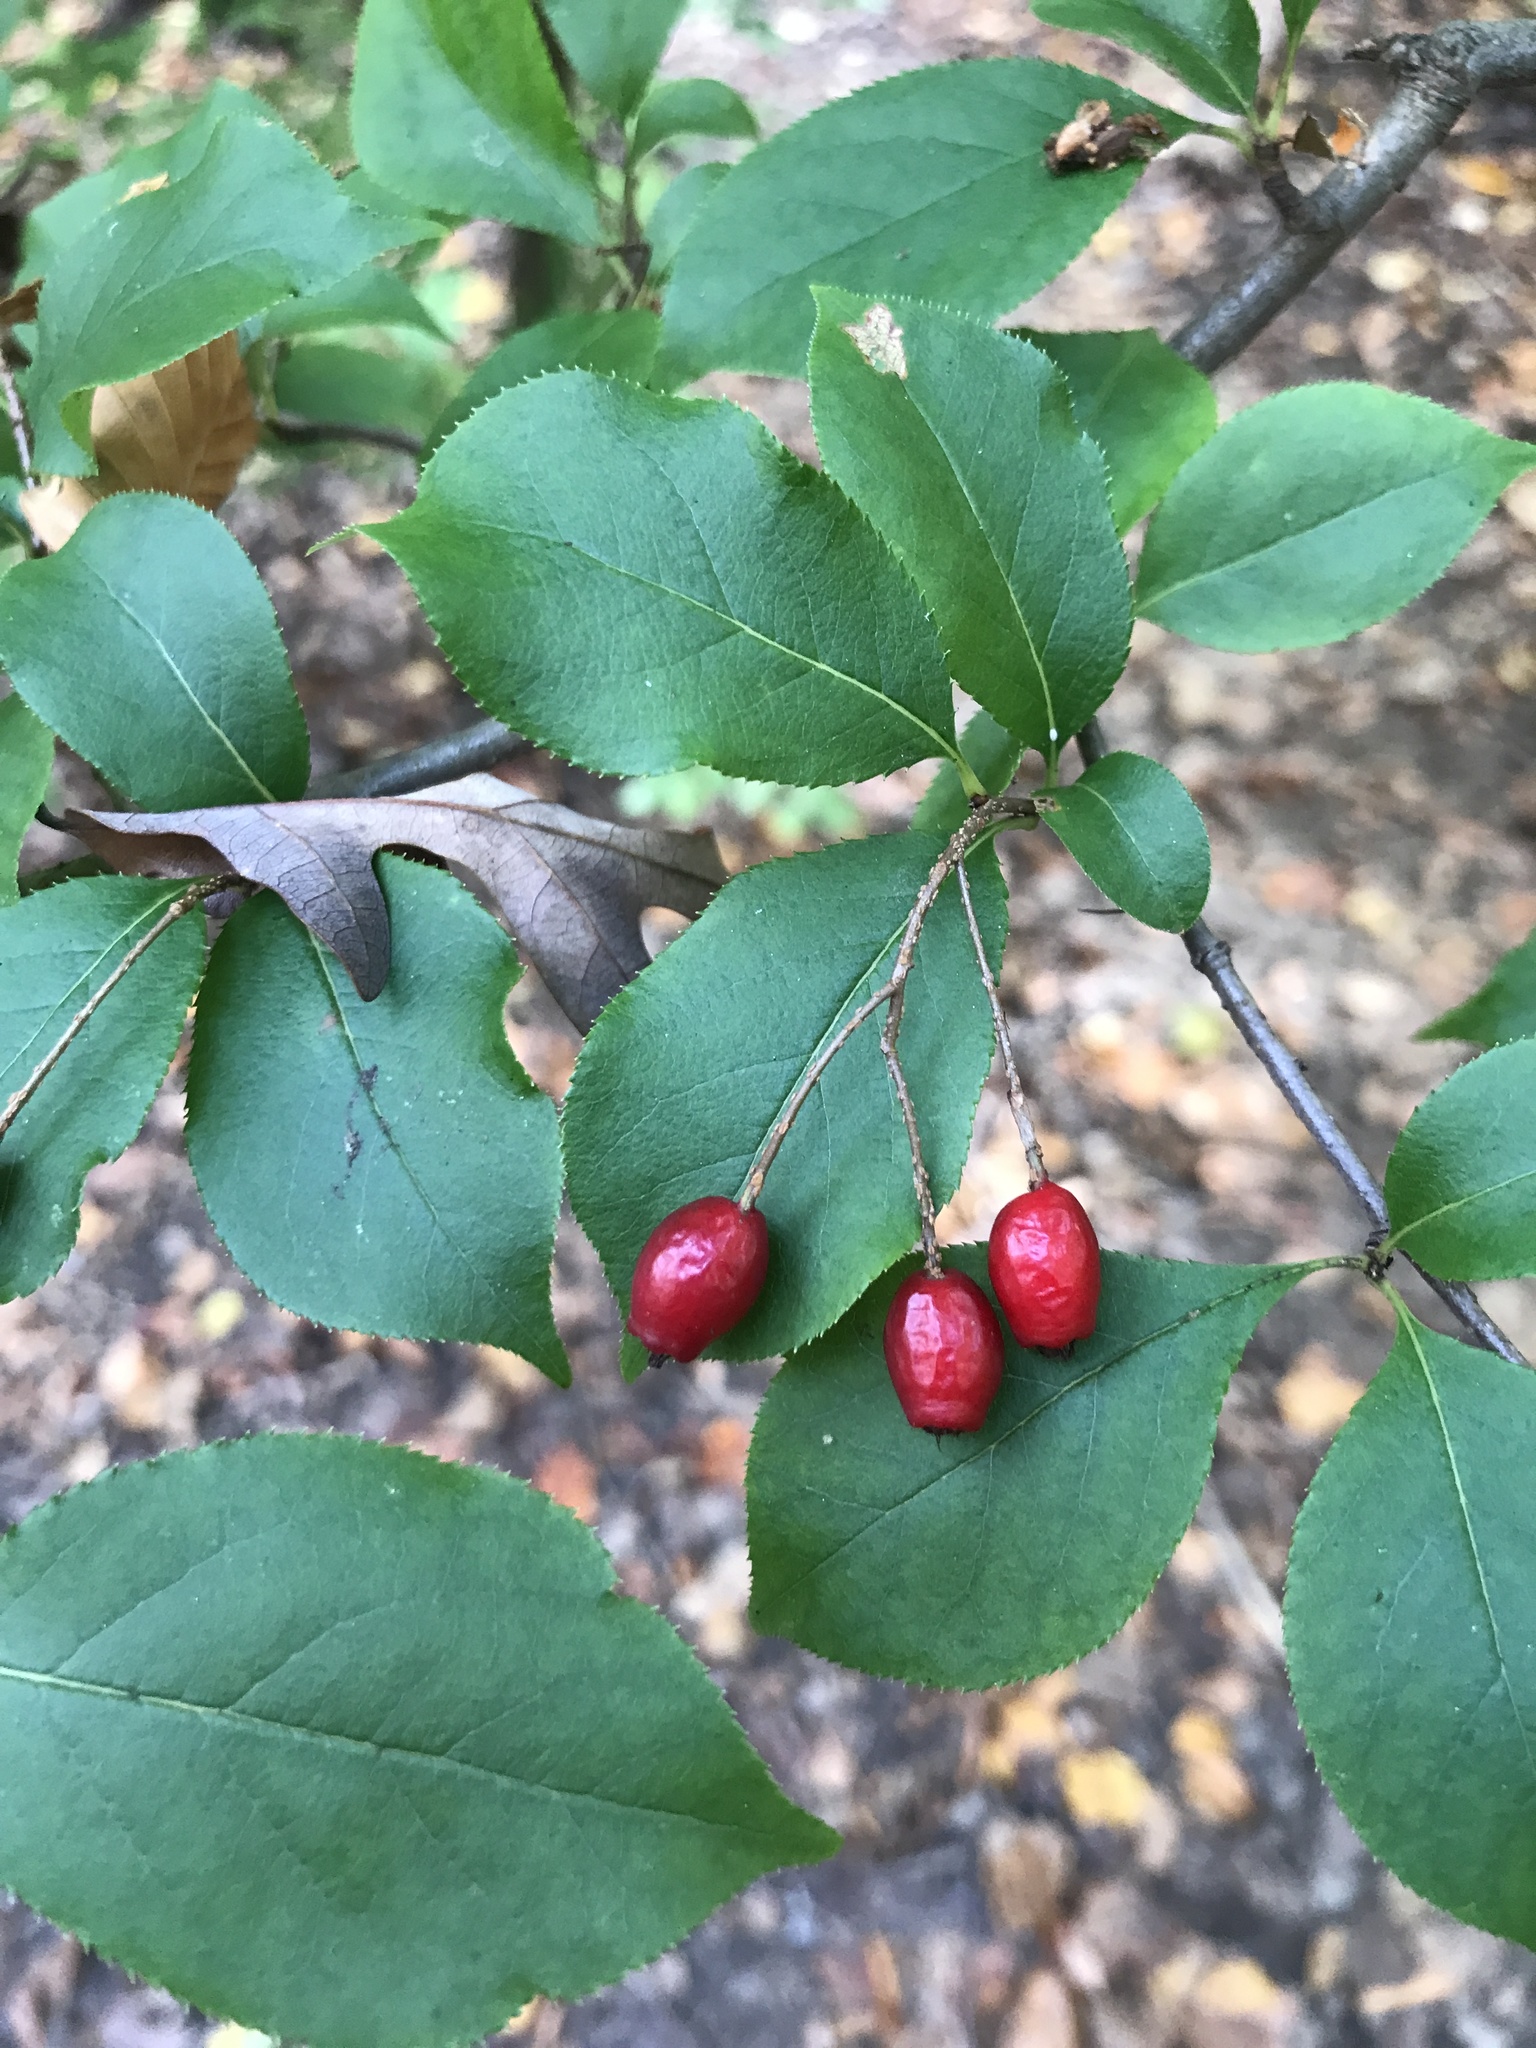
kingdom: Plantae
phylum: Tracheophyta
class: Magnoliopsida
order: Rosales
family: Rosaceae
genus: Pourthiaea
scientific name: Pourthiaea villosa
